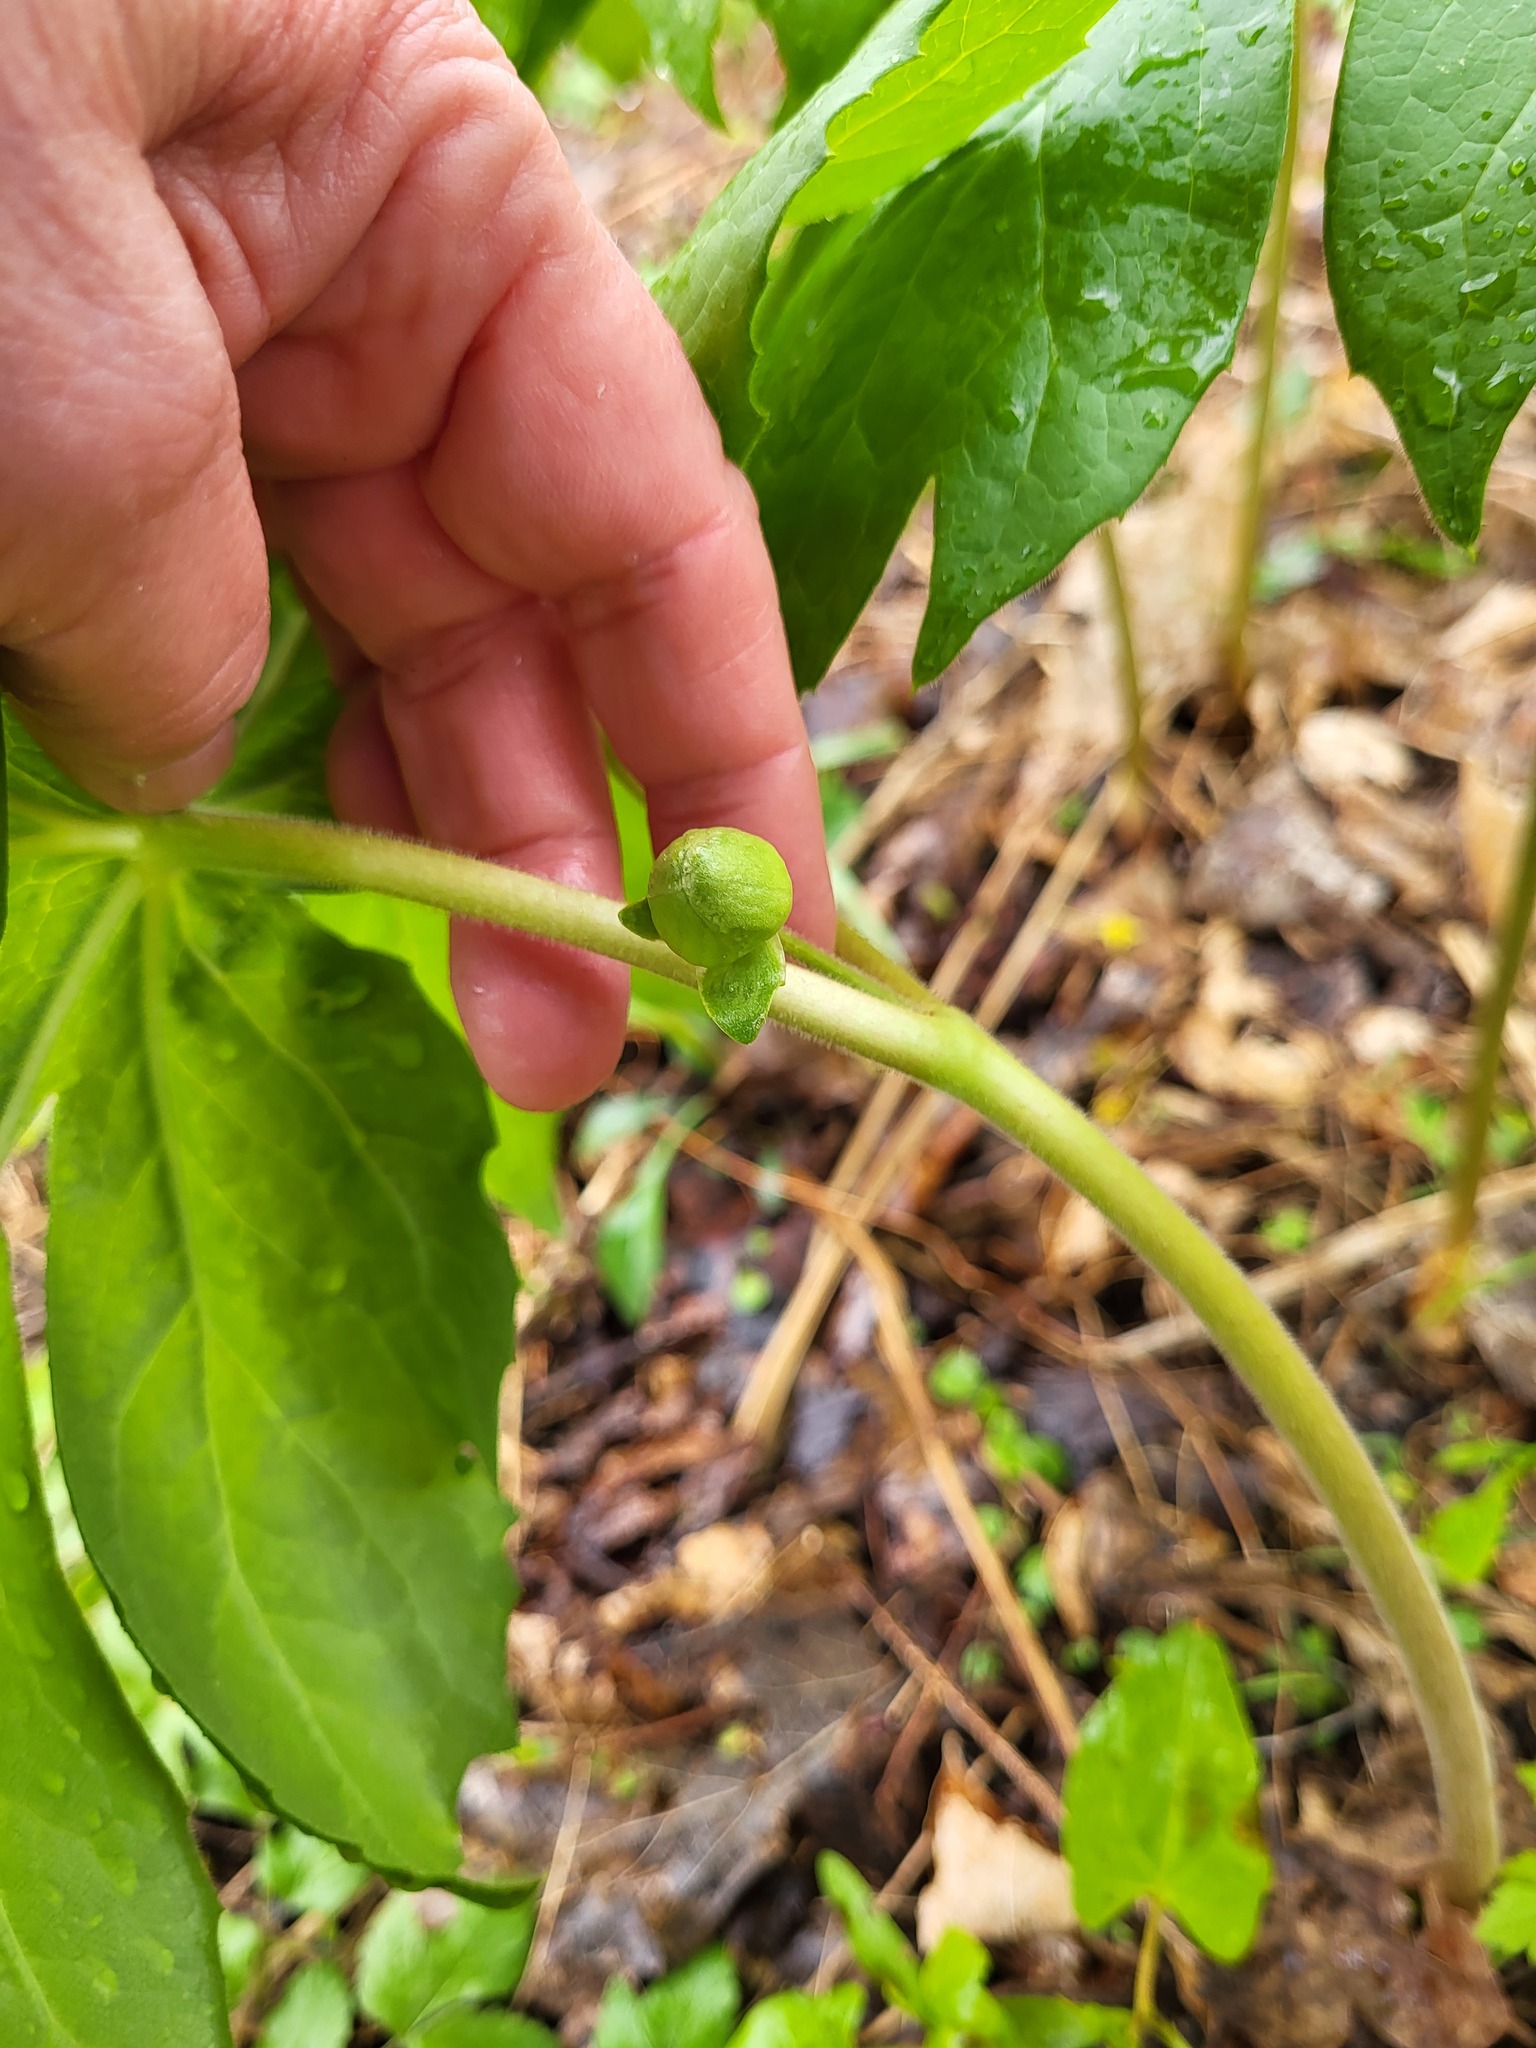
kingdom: Plantae
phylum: Tracheophyta
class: Magnoliopsida
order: Ranunculales
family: Berberidaceae
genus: Podophyllum
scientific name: Podophyllum peltatum
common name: Wild mandrake
